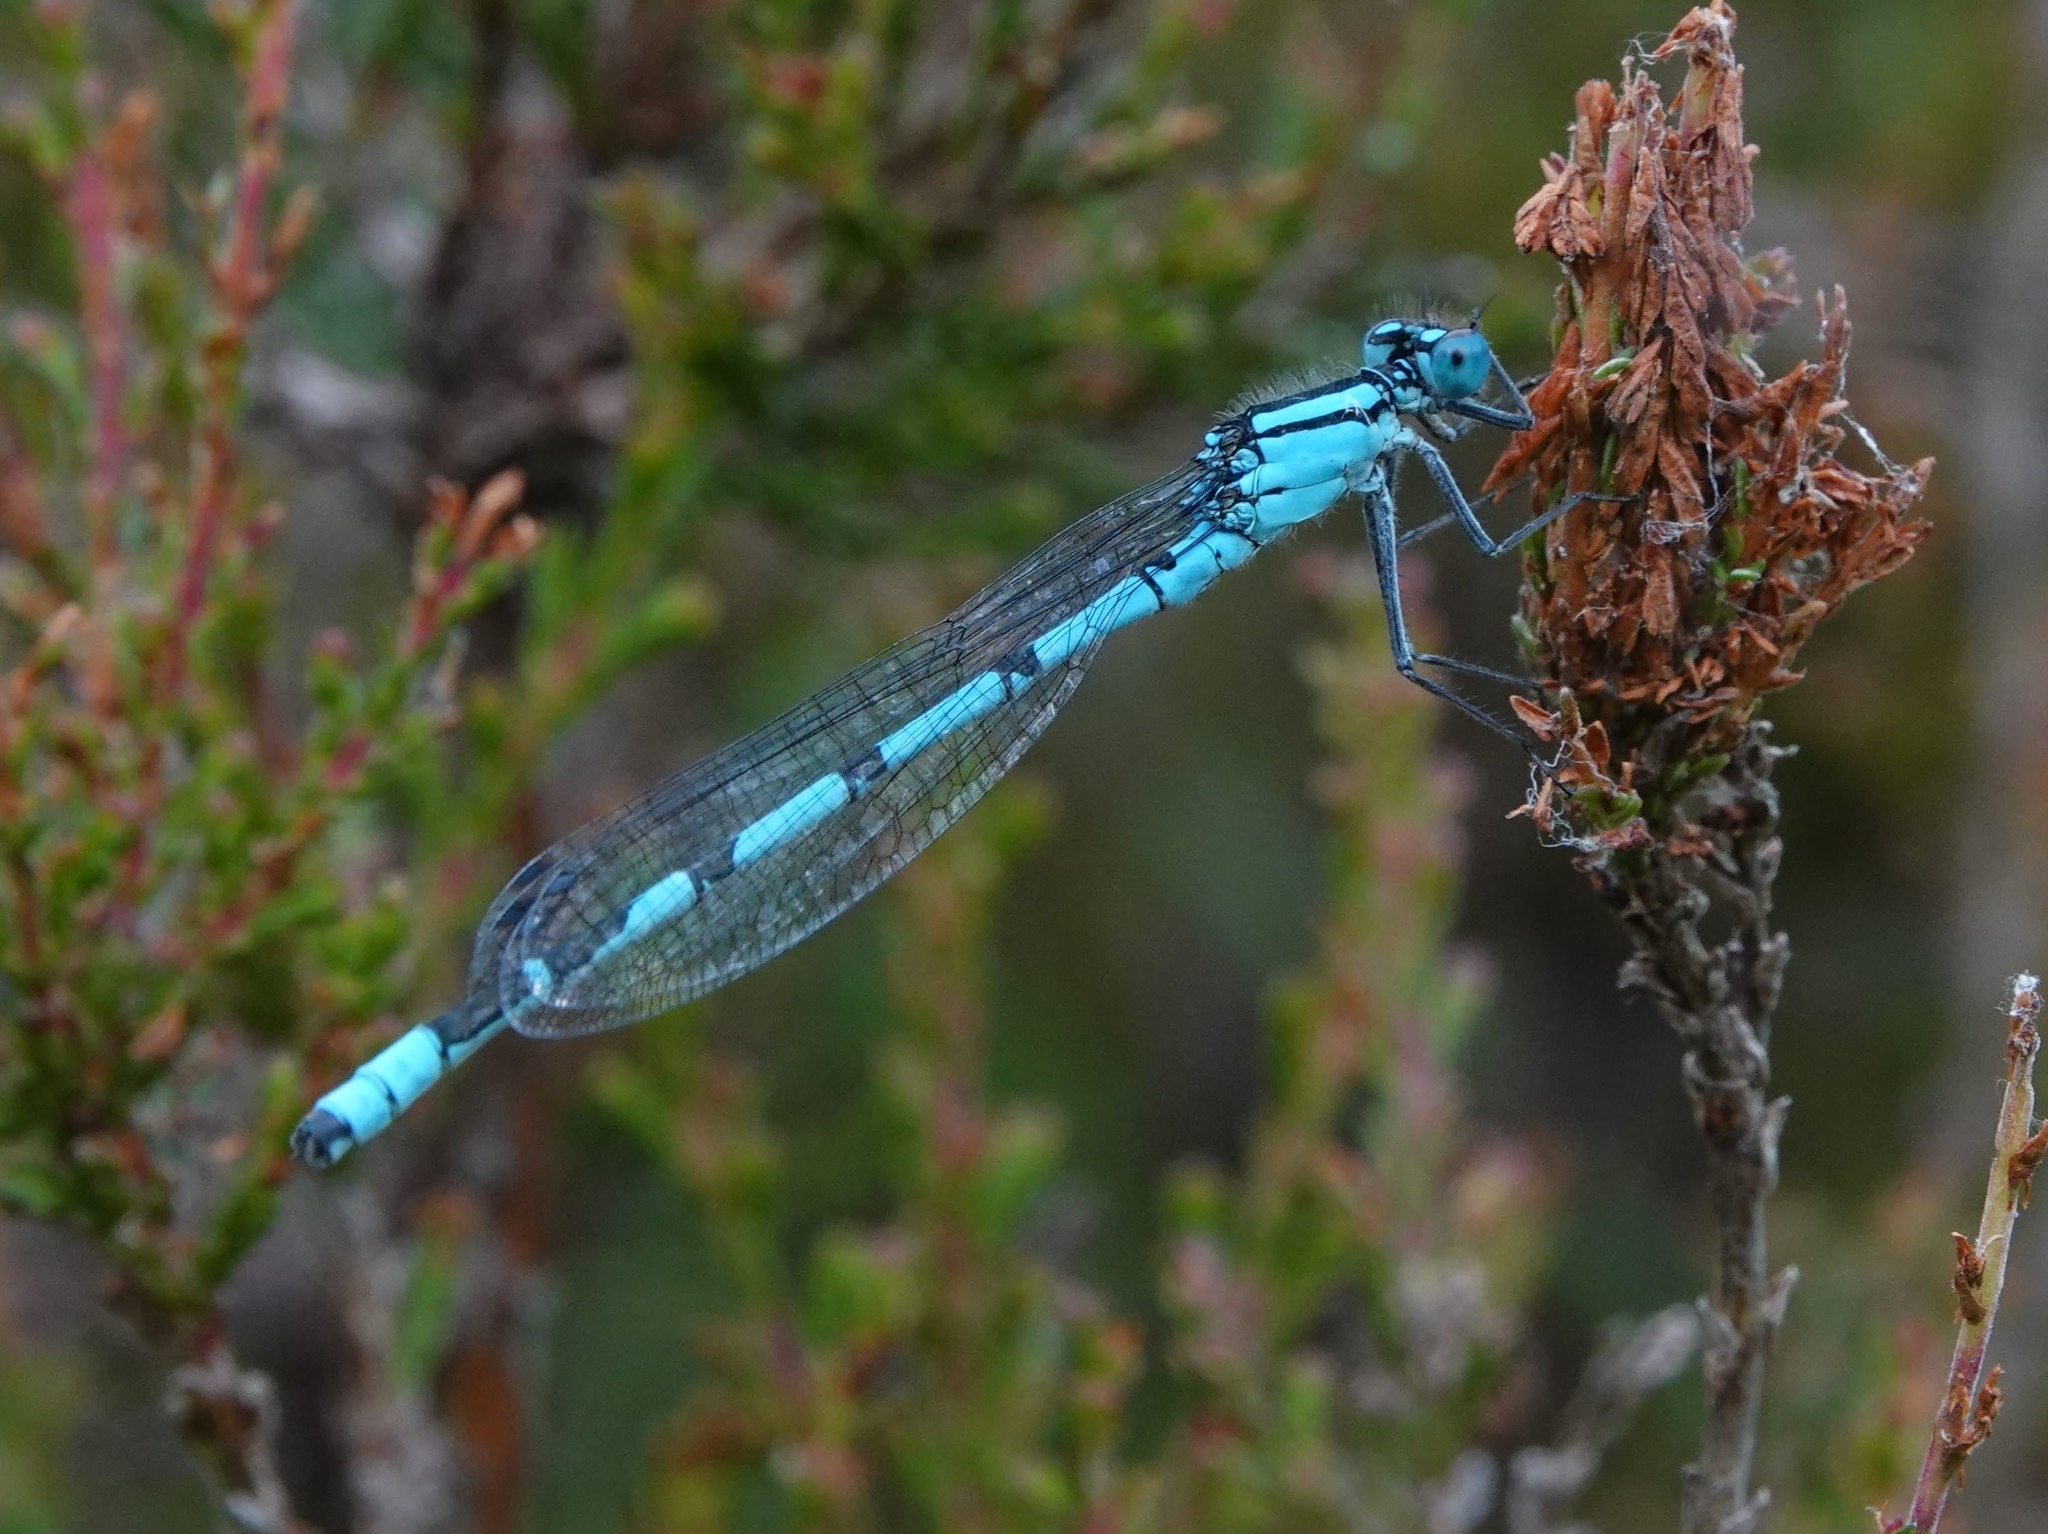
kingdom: Animalia
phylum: Arthropoda
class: Insecta
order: Odonata
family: Coenagrionidae
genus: Enallagma
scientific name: Enallagma cyathigerum
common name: Common blue damselfly
